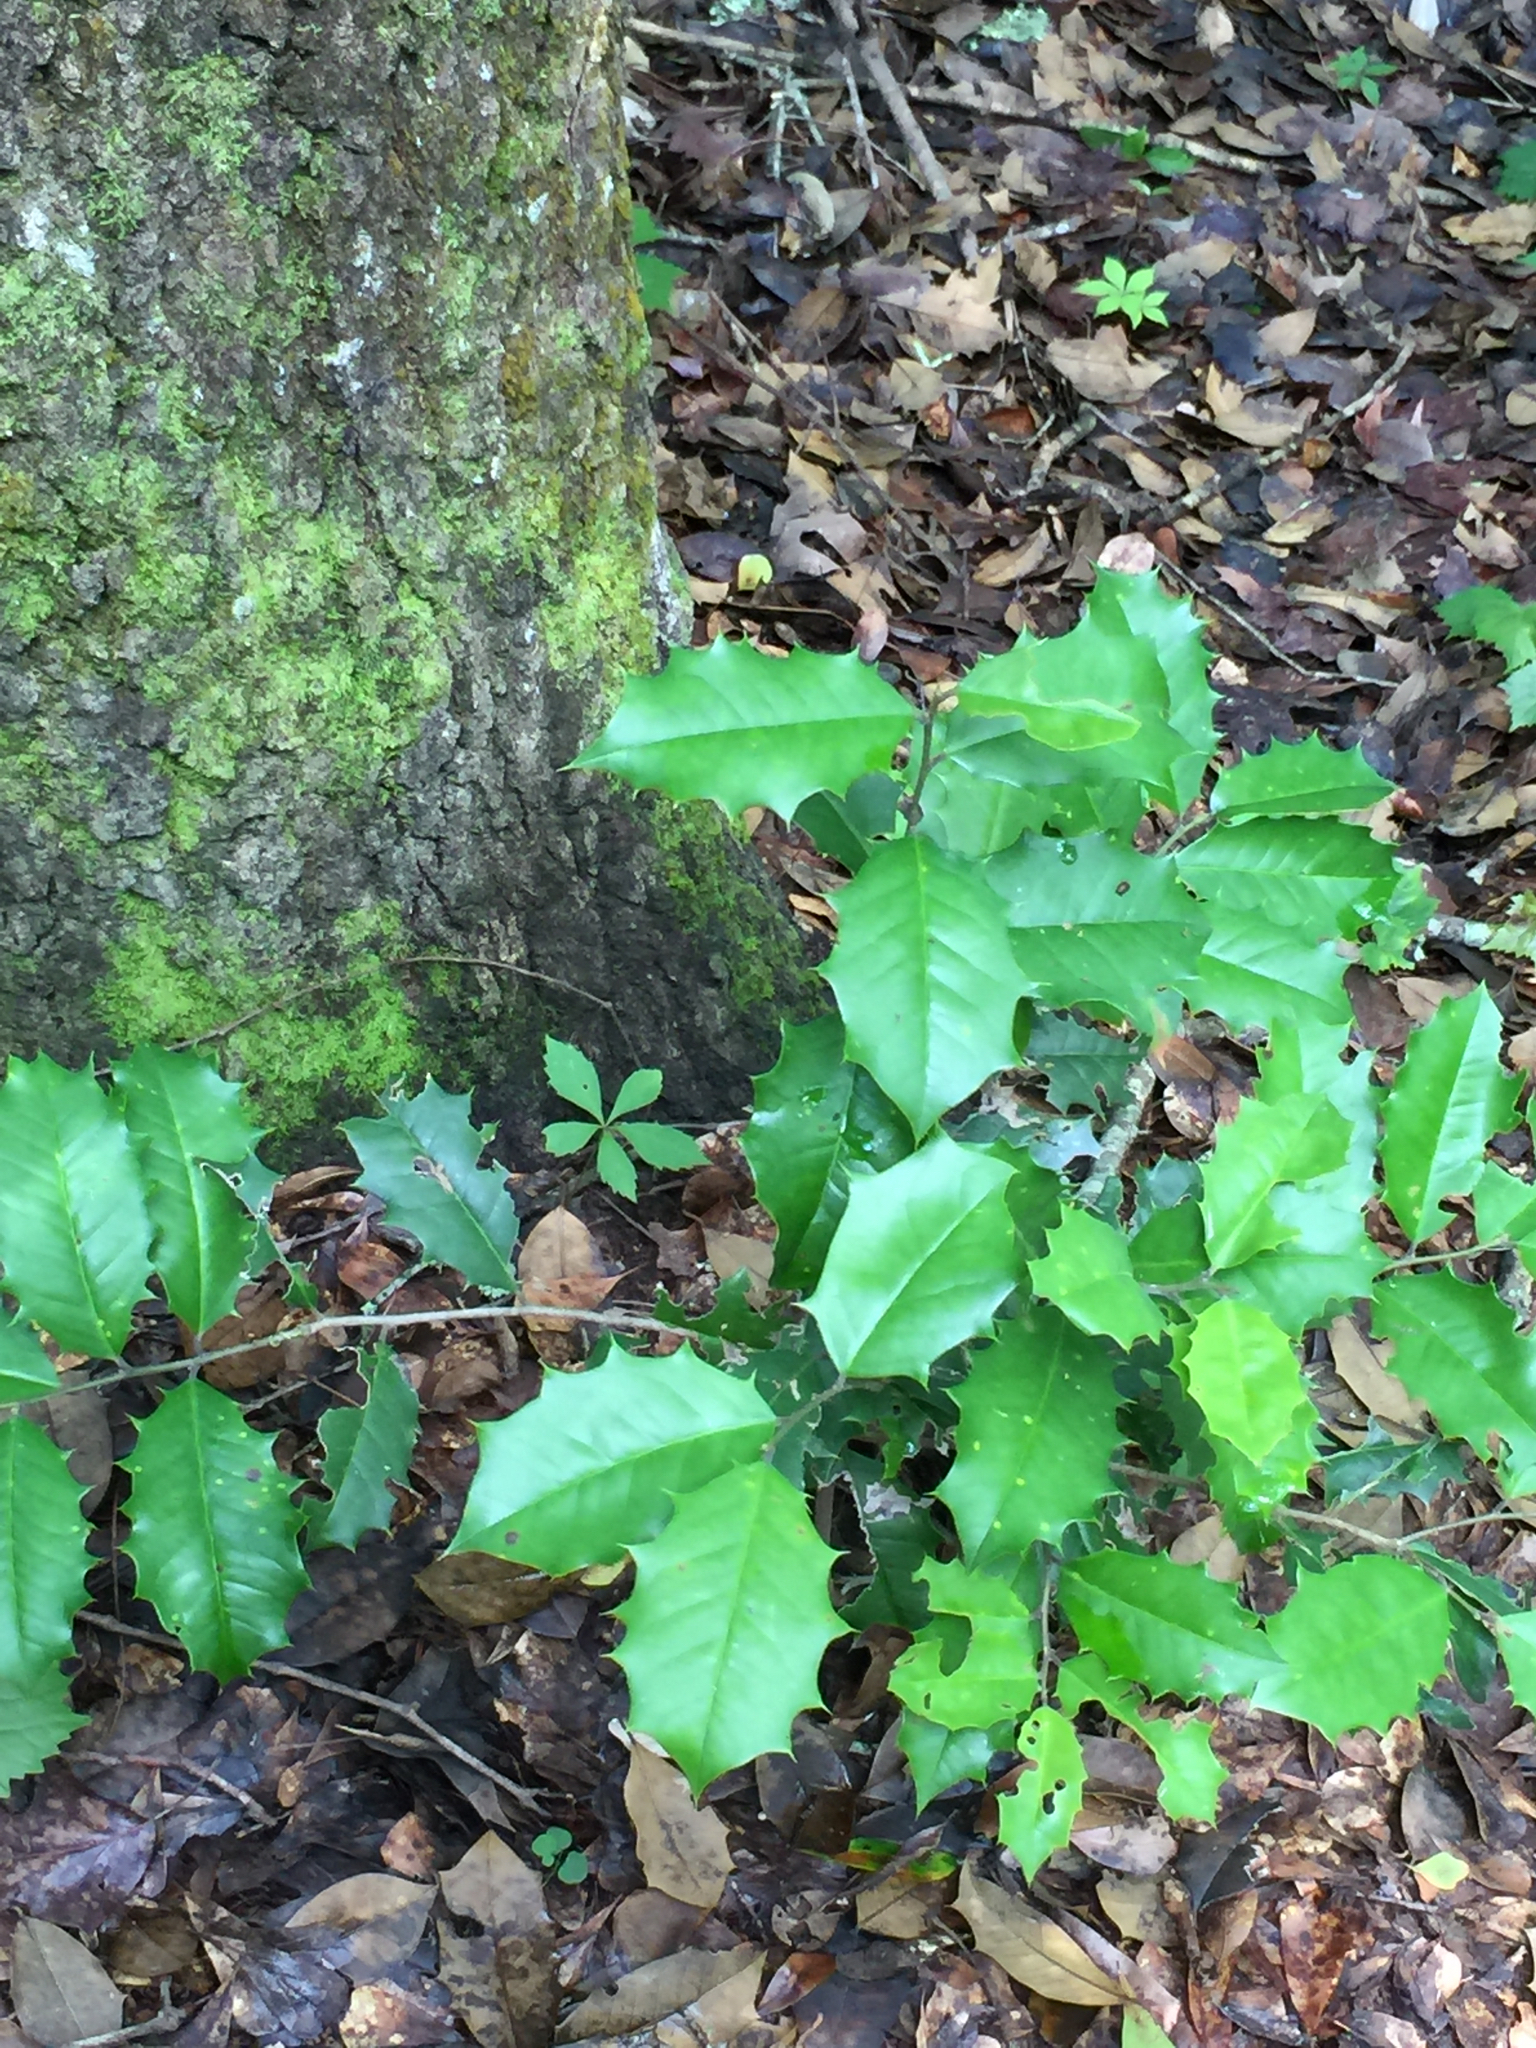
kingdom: Plantae
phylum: Tracheophyta
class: Magnoliopsida
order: Aquifoliales
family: Aquifoliaceae
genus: Ilex
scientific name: Ilex opaca
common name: American holly
